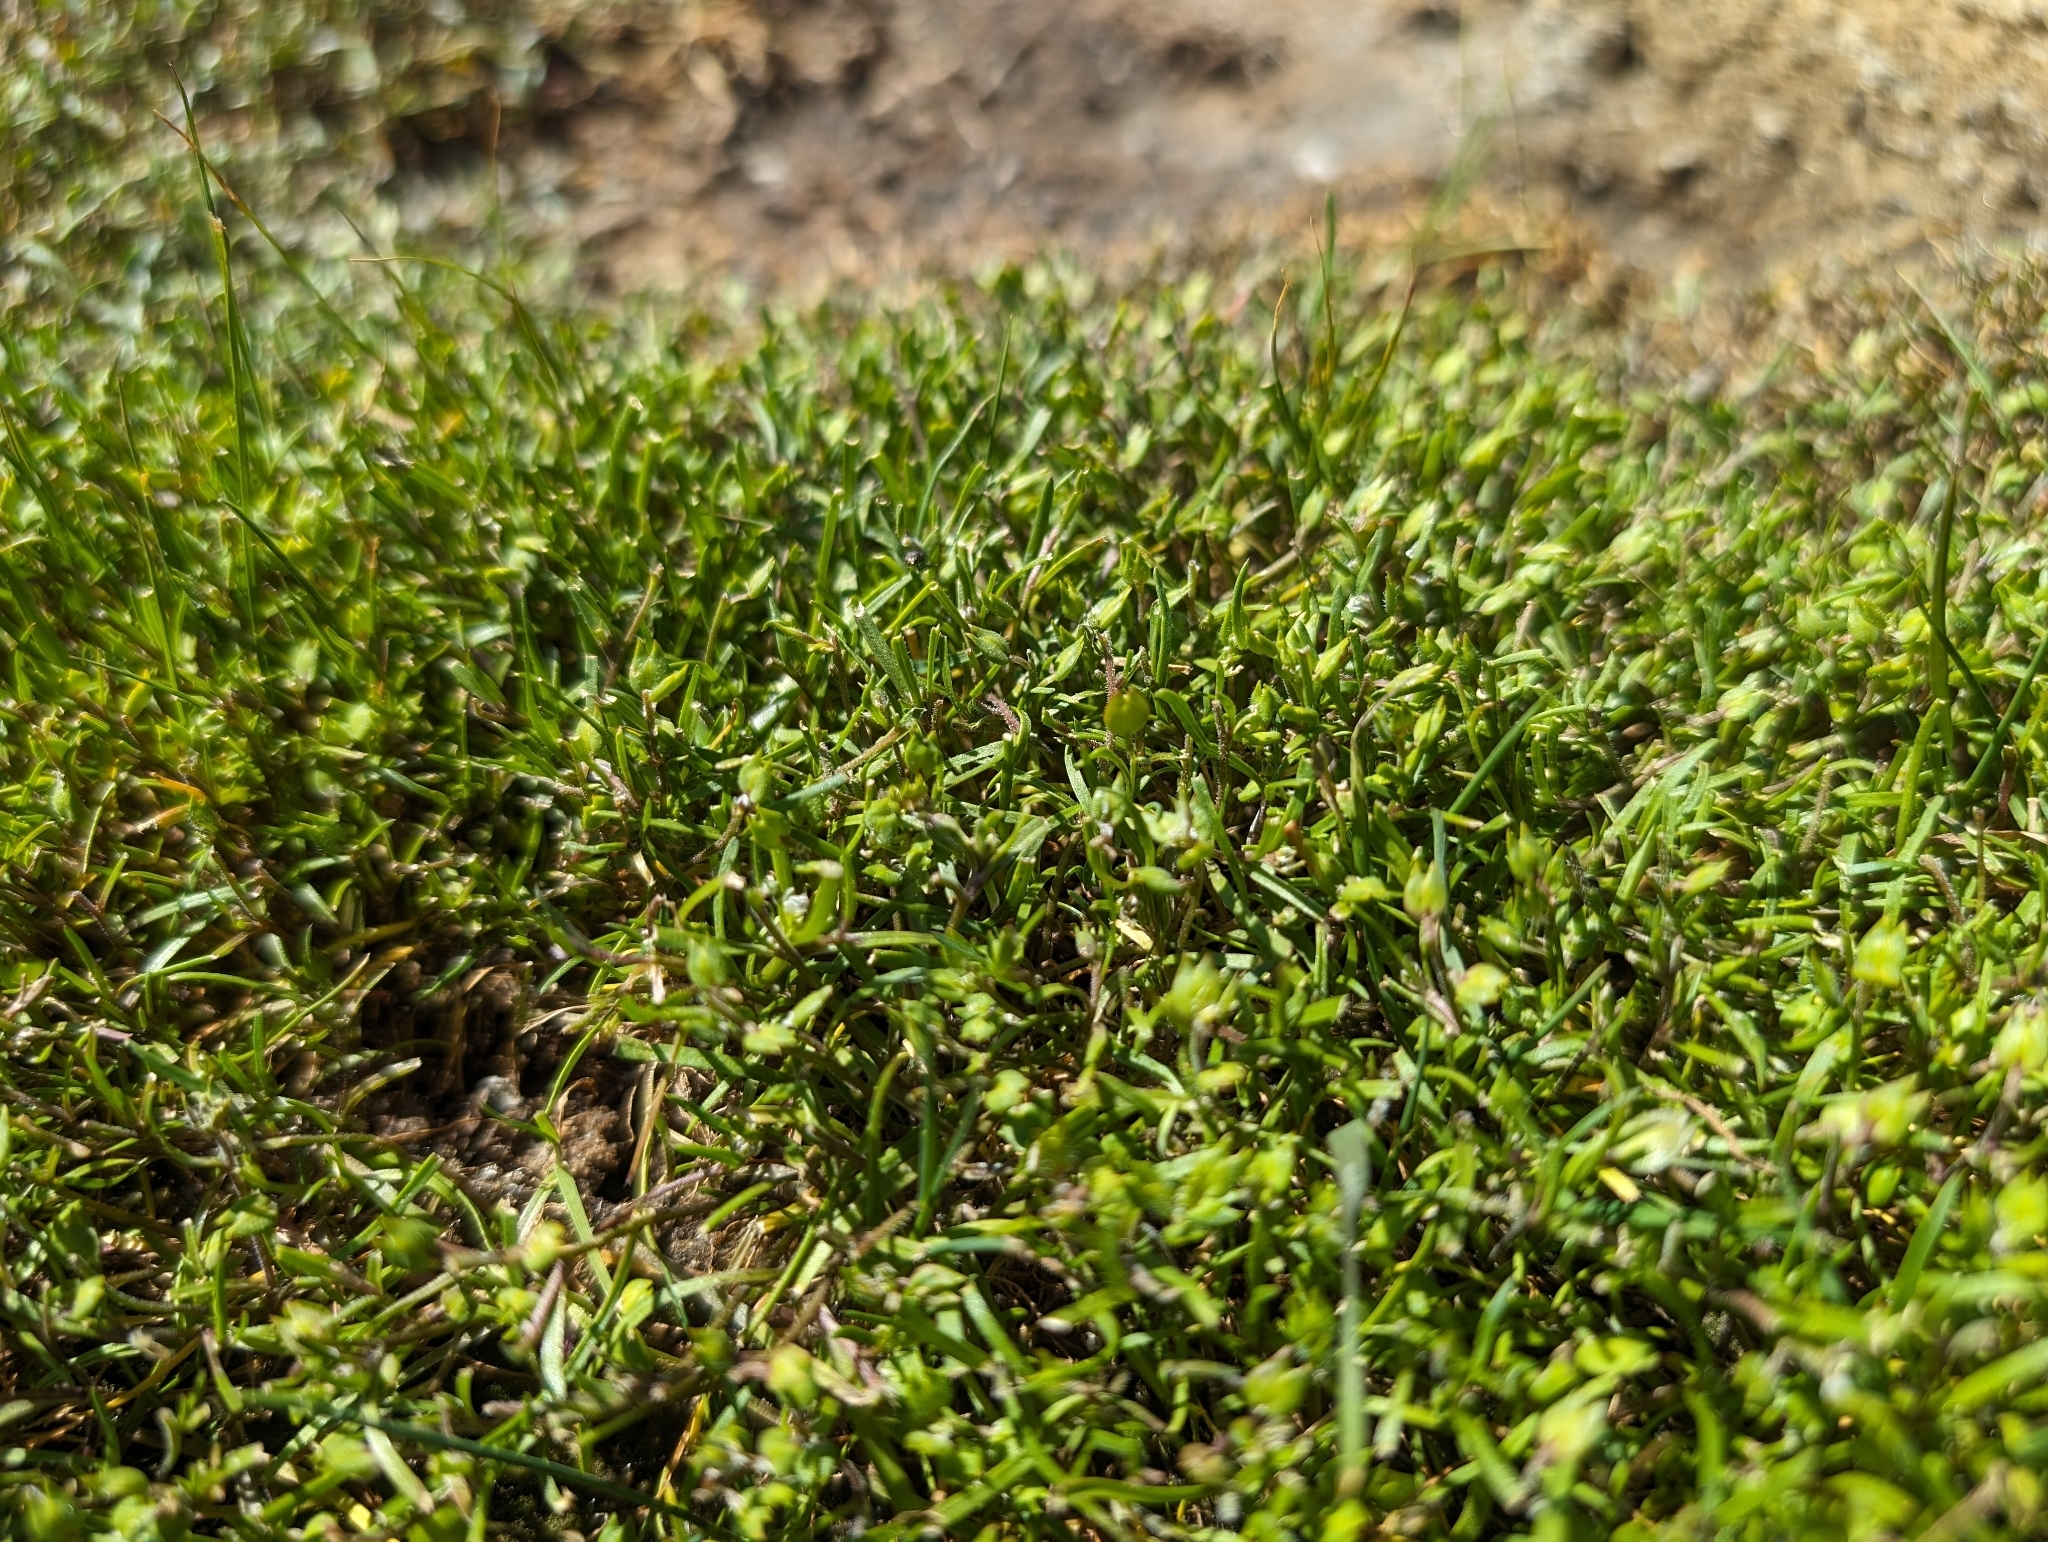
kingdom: Plantae
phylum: Tracheophyta
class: Magnoliopsida
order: Brassicales
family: Brassicaceae
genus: Lepidium
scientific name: Lepidium dictyotum
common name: Alkali pepperwort
